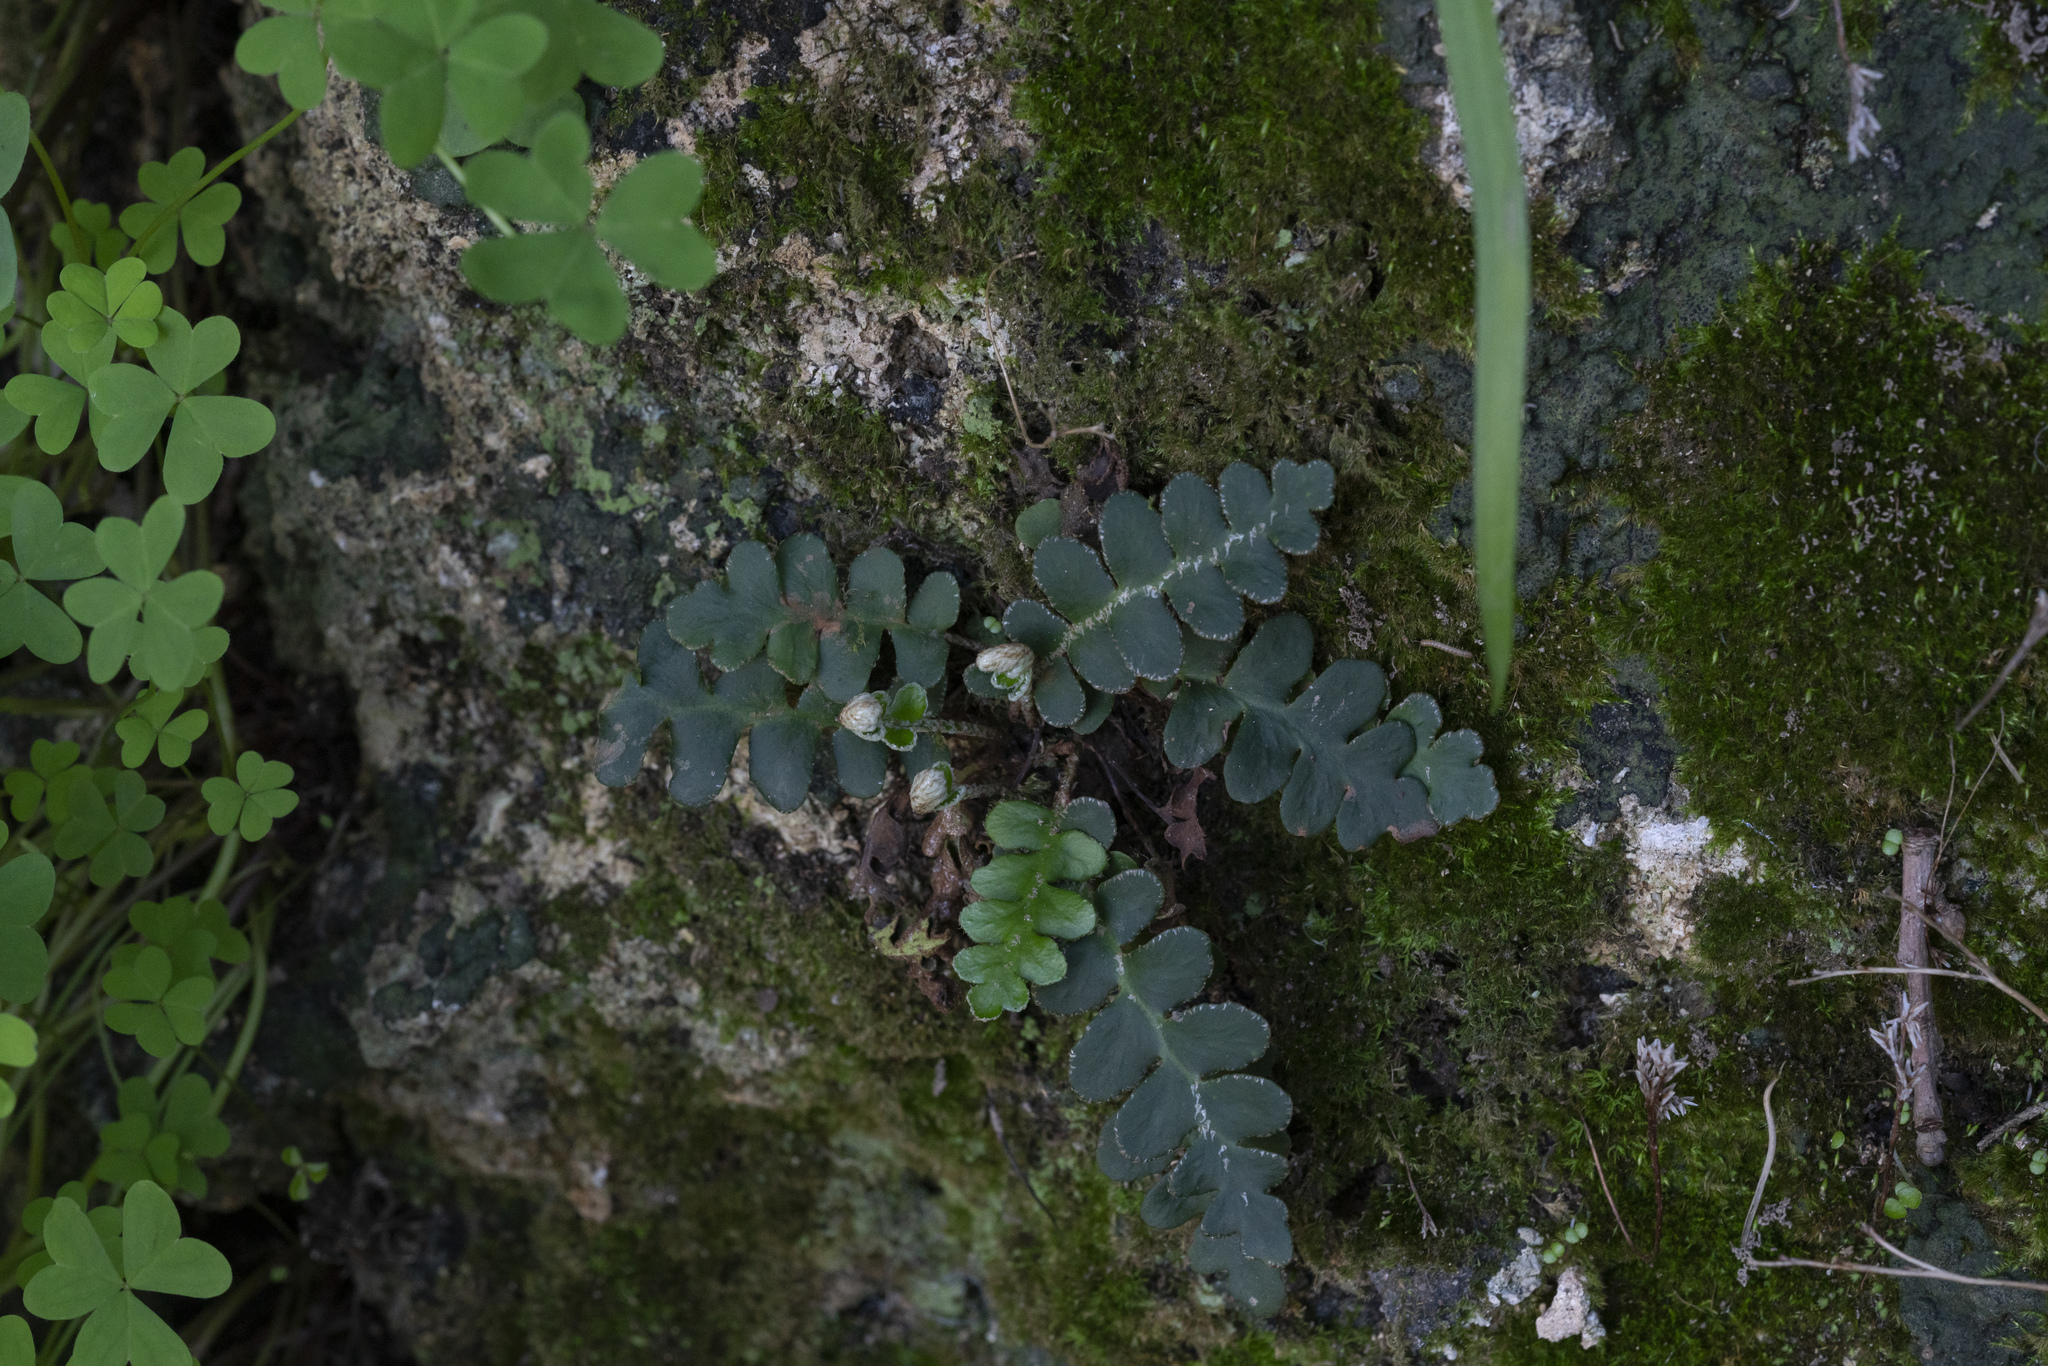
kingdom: Plantae
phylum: Tracheophyta
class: Polypodiopsida
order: Polypodiales
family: Aspleniaceae
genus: Asplenium
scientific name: Asplenium ceterach
